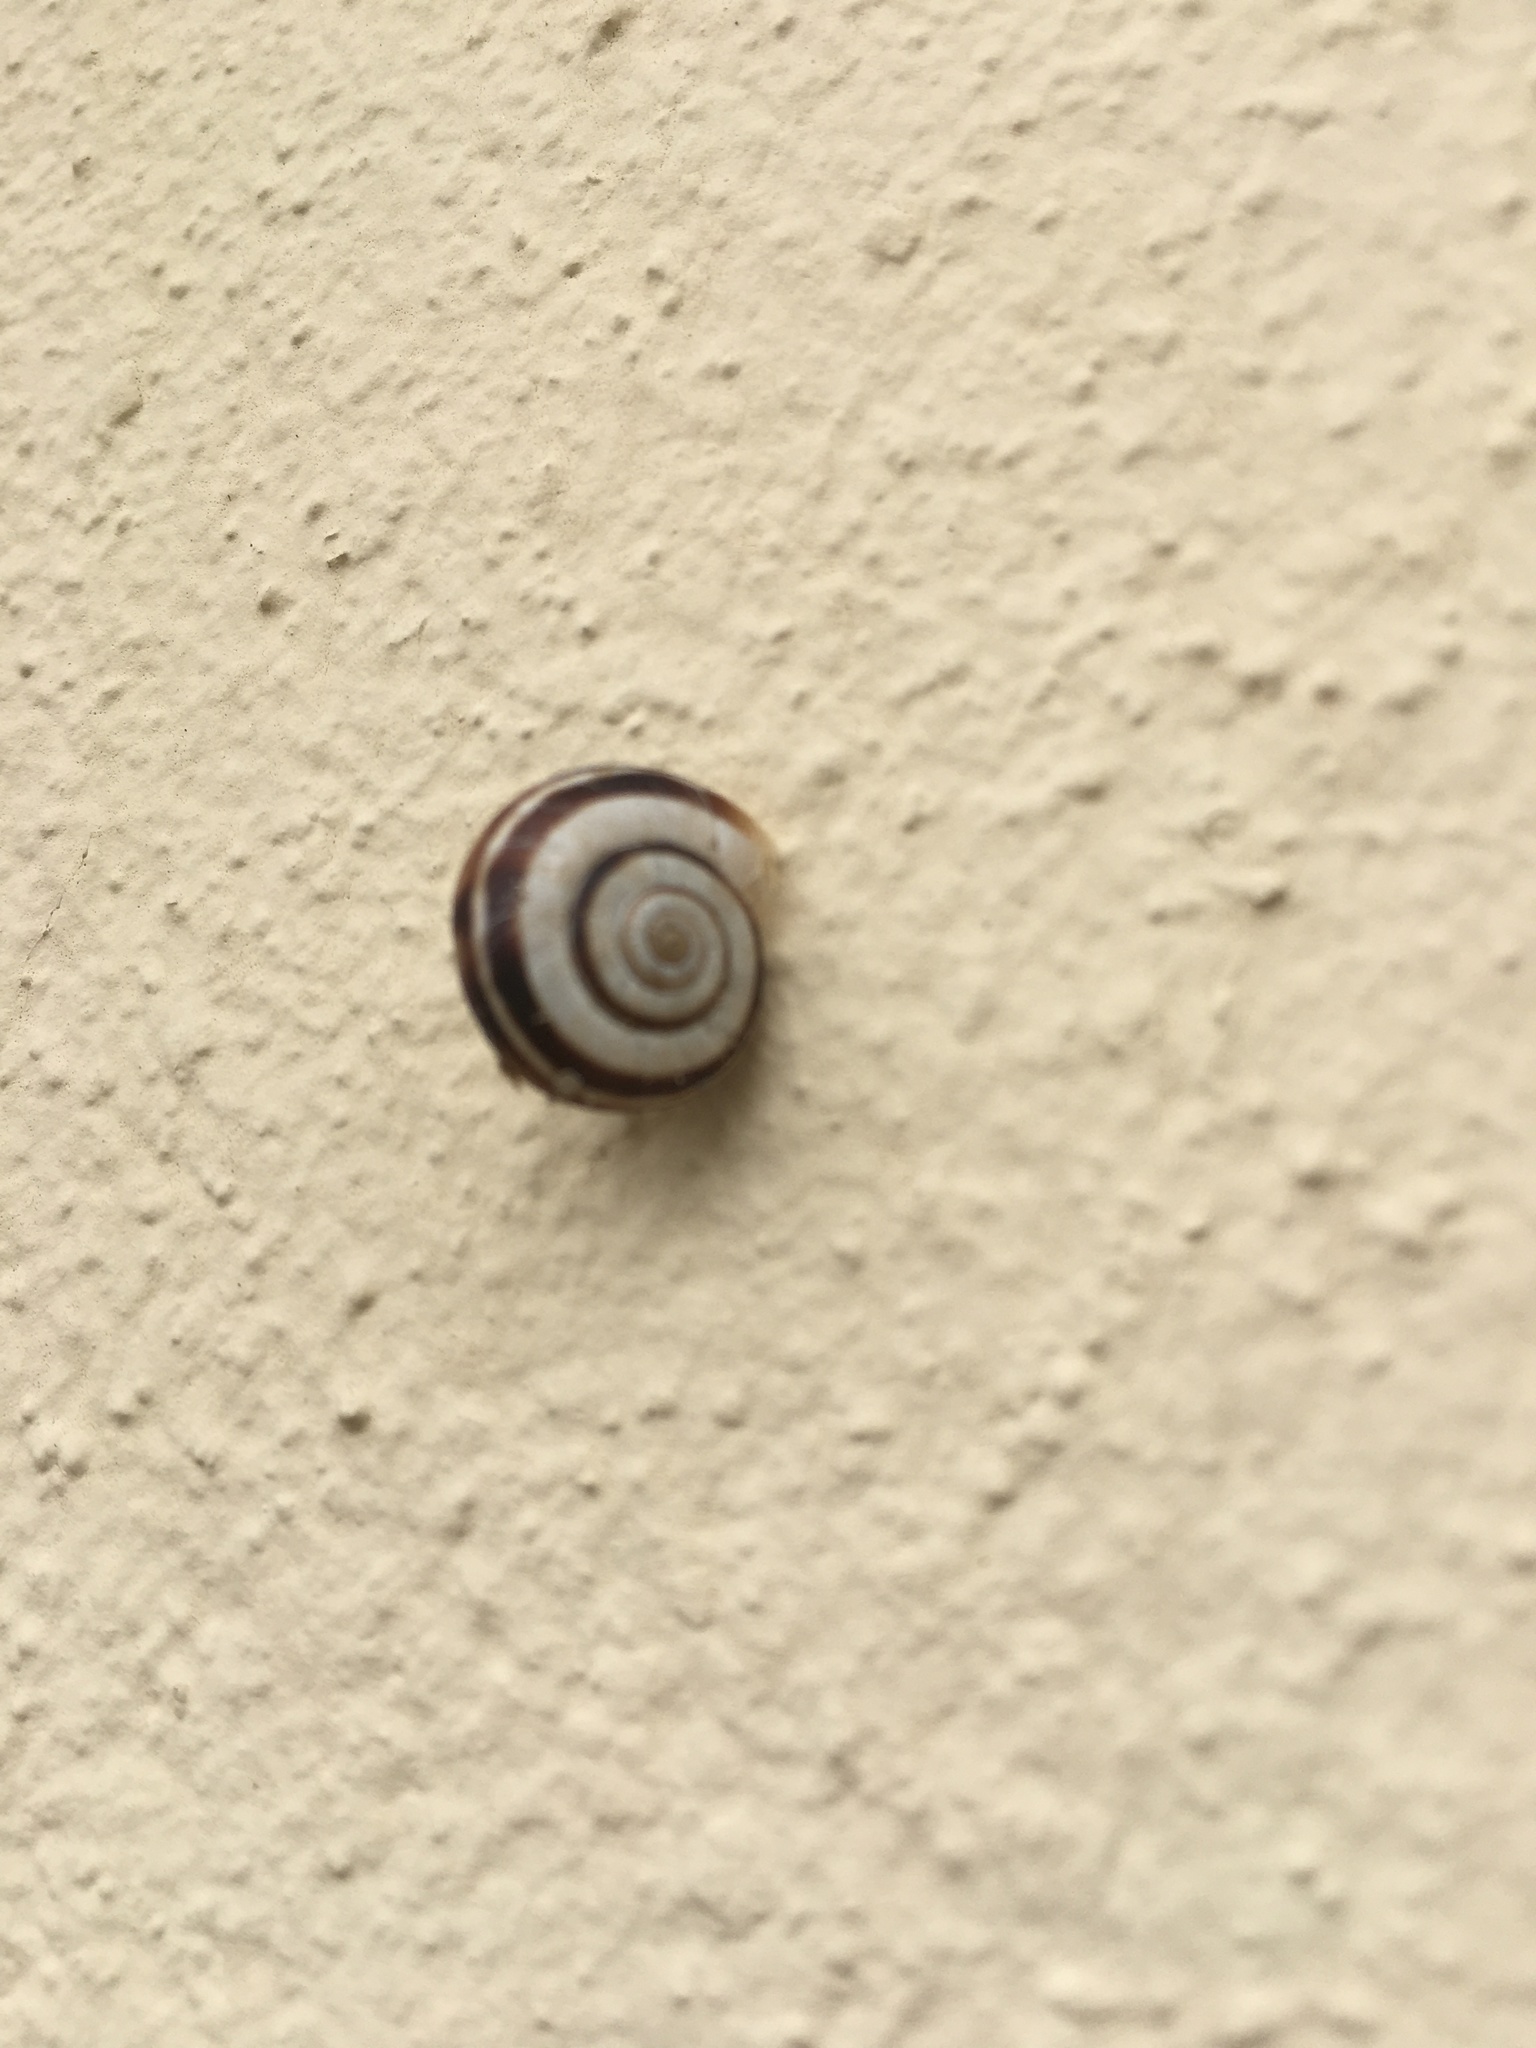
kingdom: Animalia
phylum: Mollusca
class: Gastropoda
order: Stylommatophora
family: Geomitridae
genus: Xerolenta
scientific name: Xerolenta obvia
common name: White heath snail
